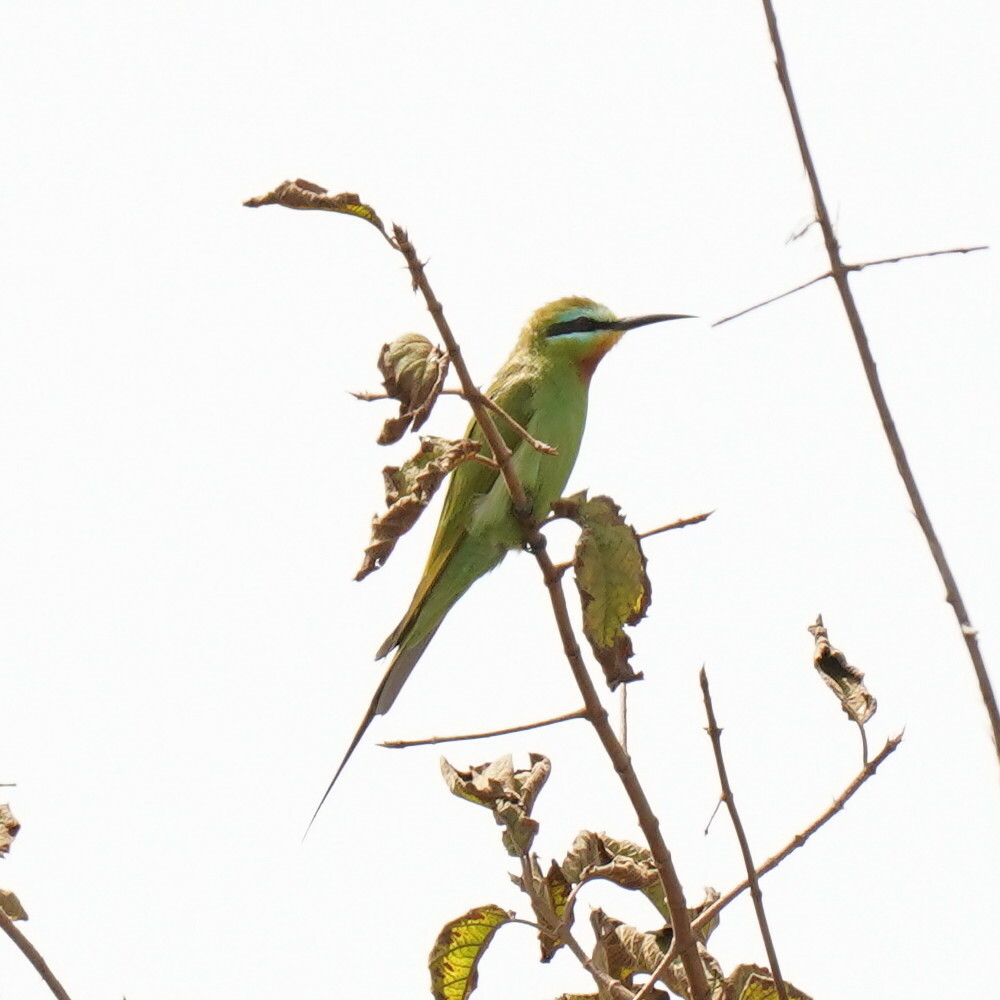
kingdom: Animalia
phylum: Chordata
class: Aves
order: Coraciiformes
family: Meropidae
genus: Merops
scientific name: Merops persicus
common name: Blue-cheeked bee-eater
